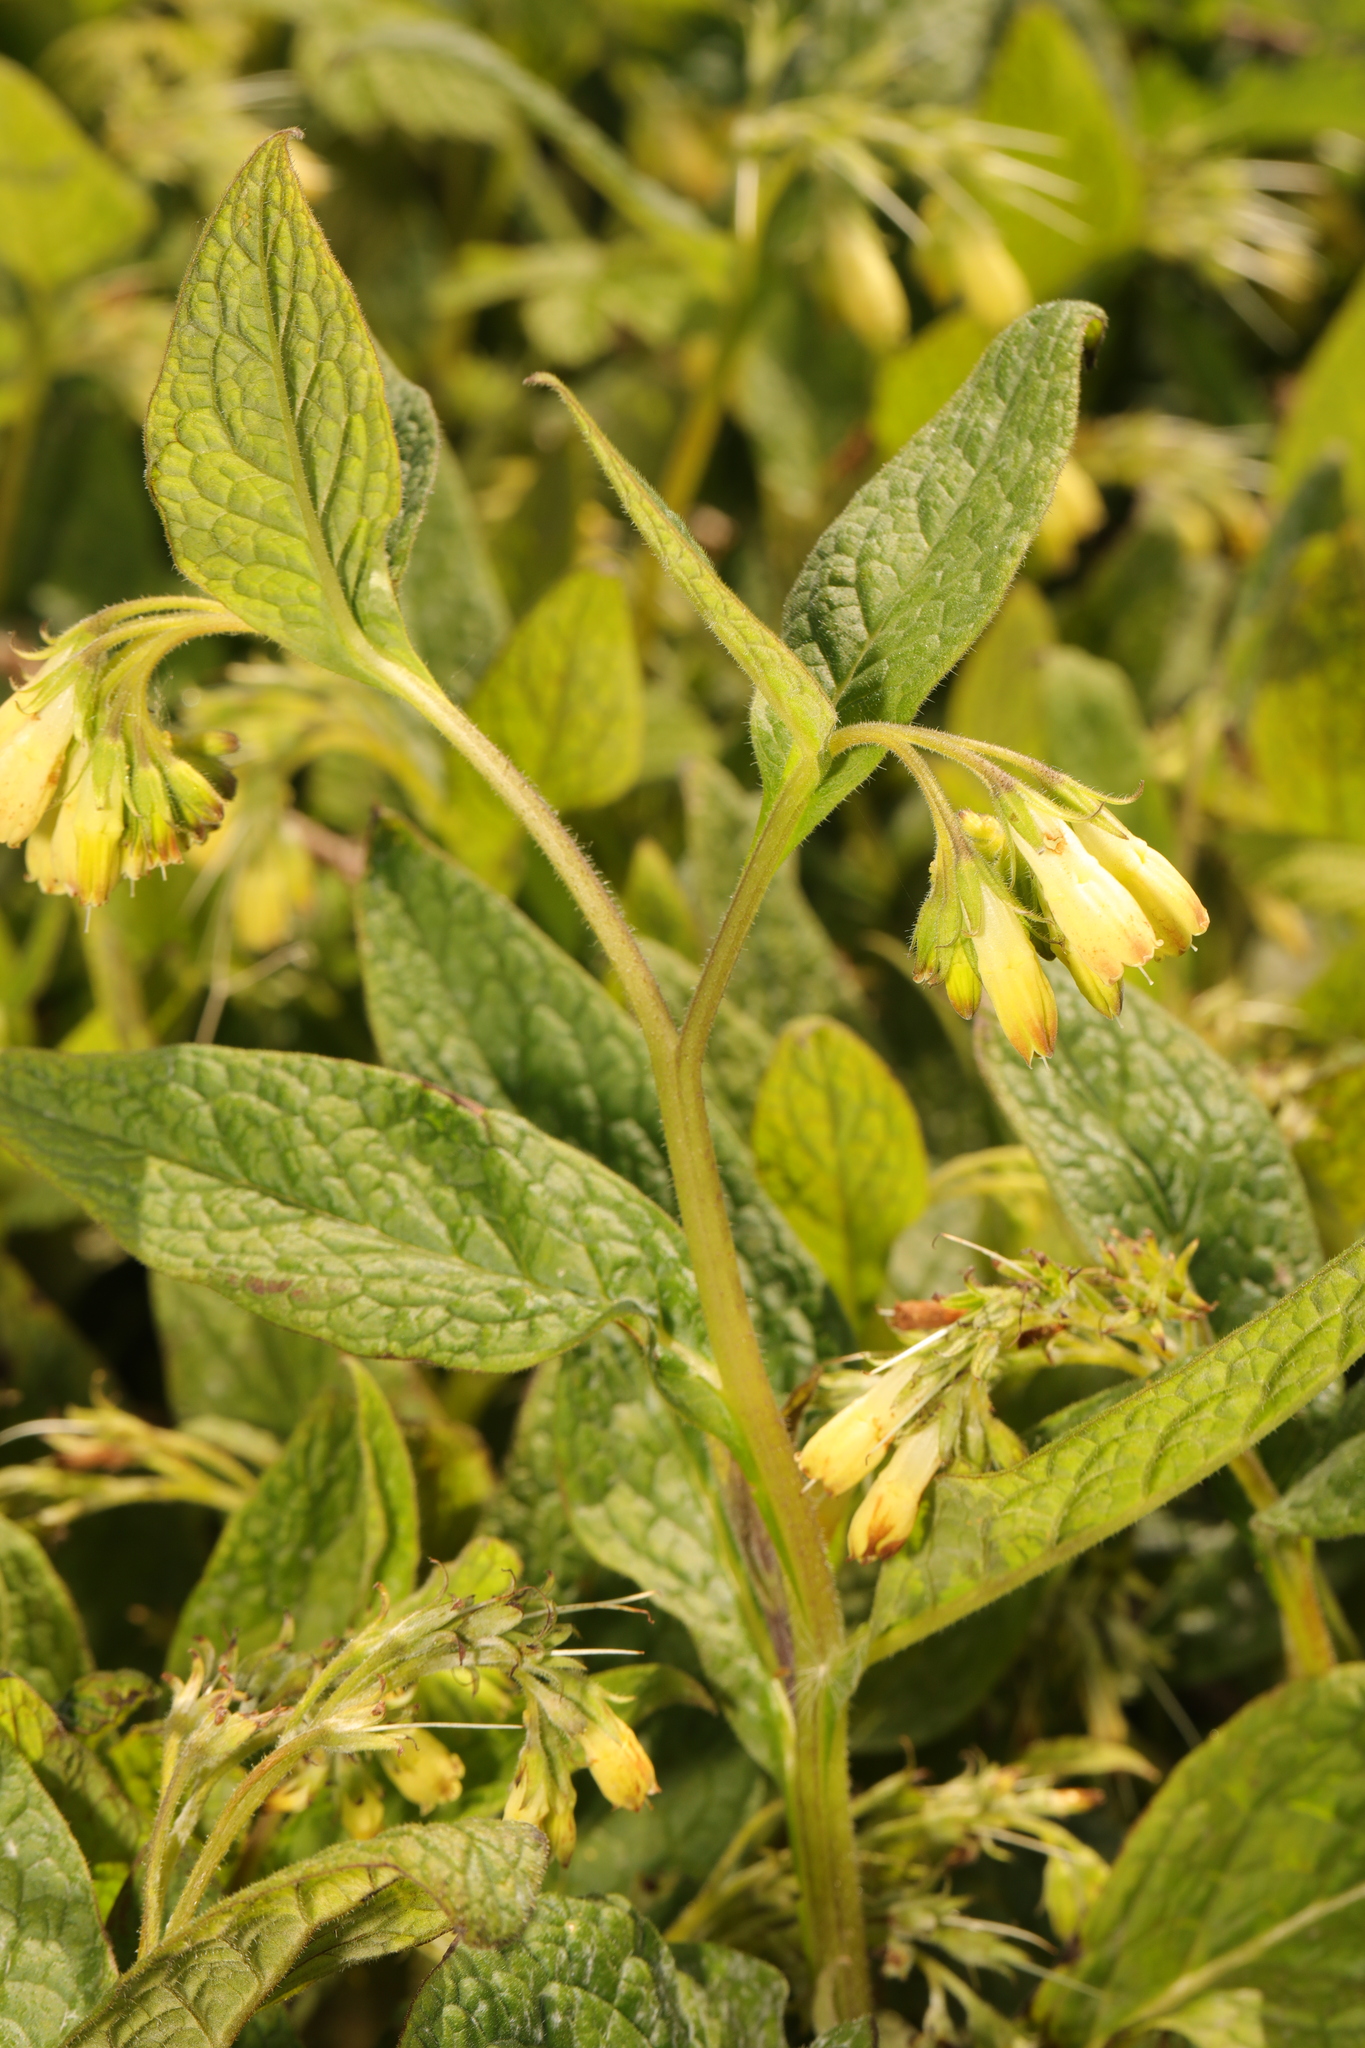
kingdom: Plantae
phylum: Tracheophyta
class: Magnoliopsida
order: Boraginales
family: Boraginaceae
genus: Symphytum
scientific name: Symphytum tuberosum
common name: Tuberous comfrey
